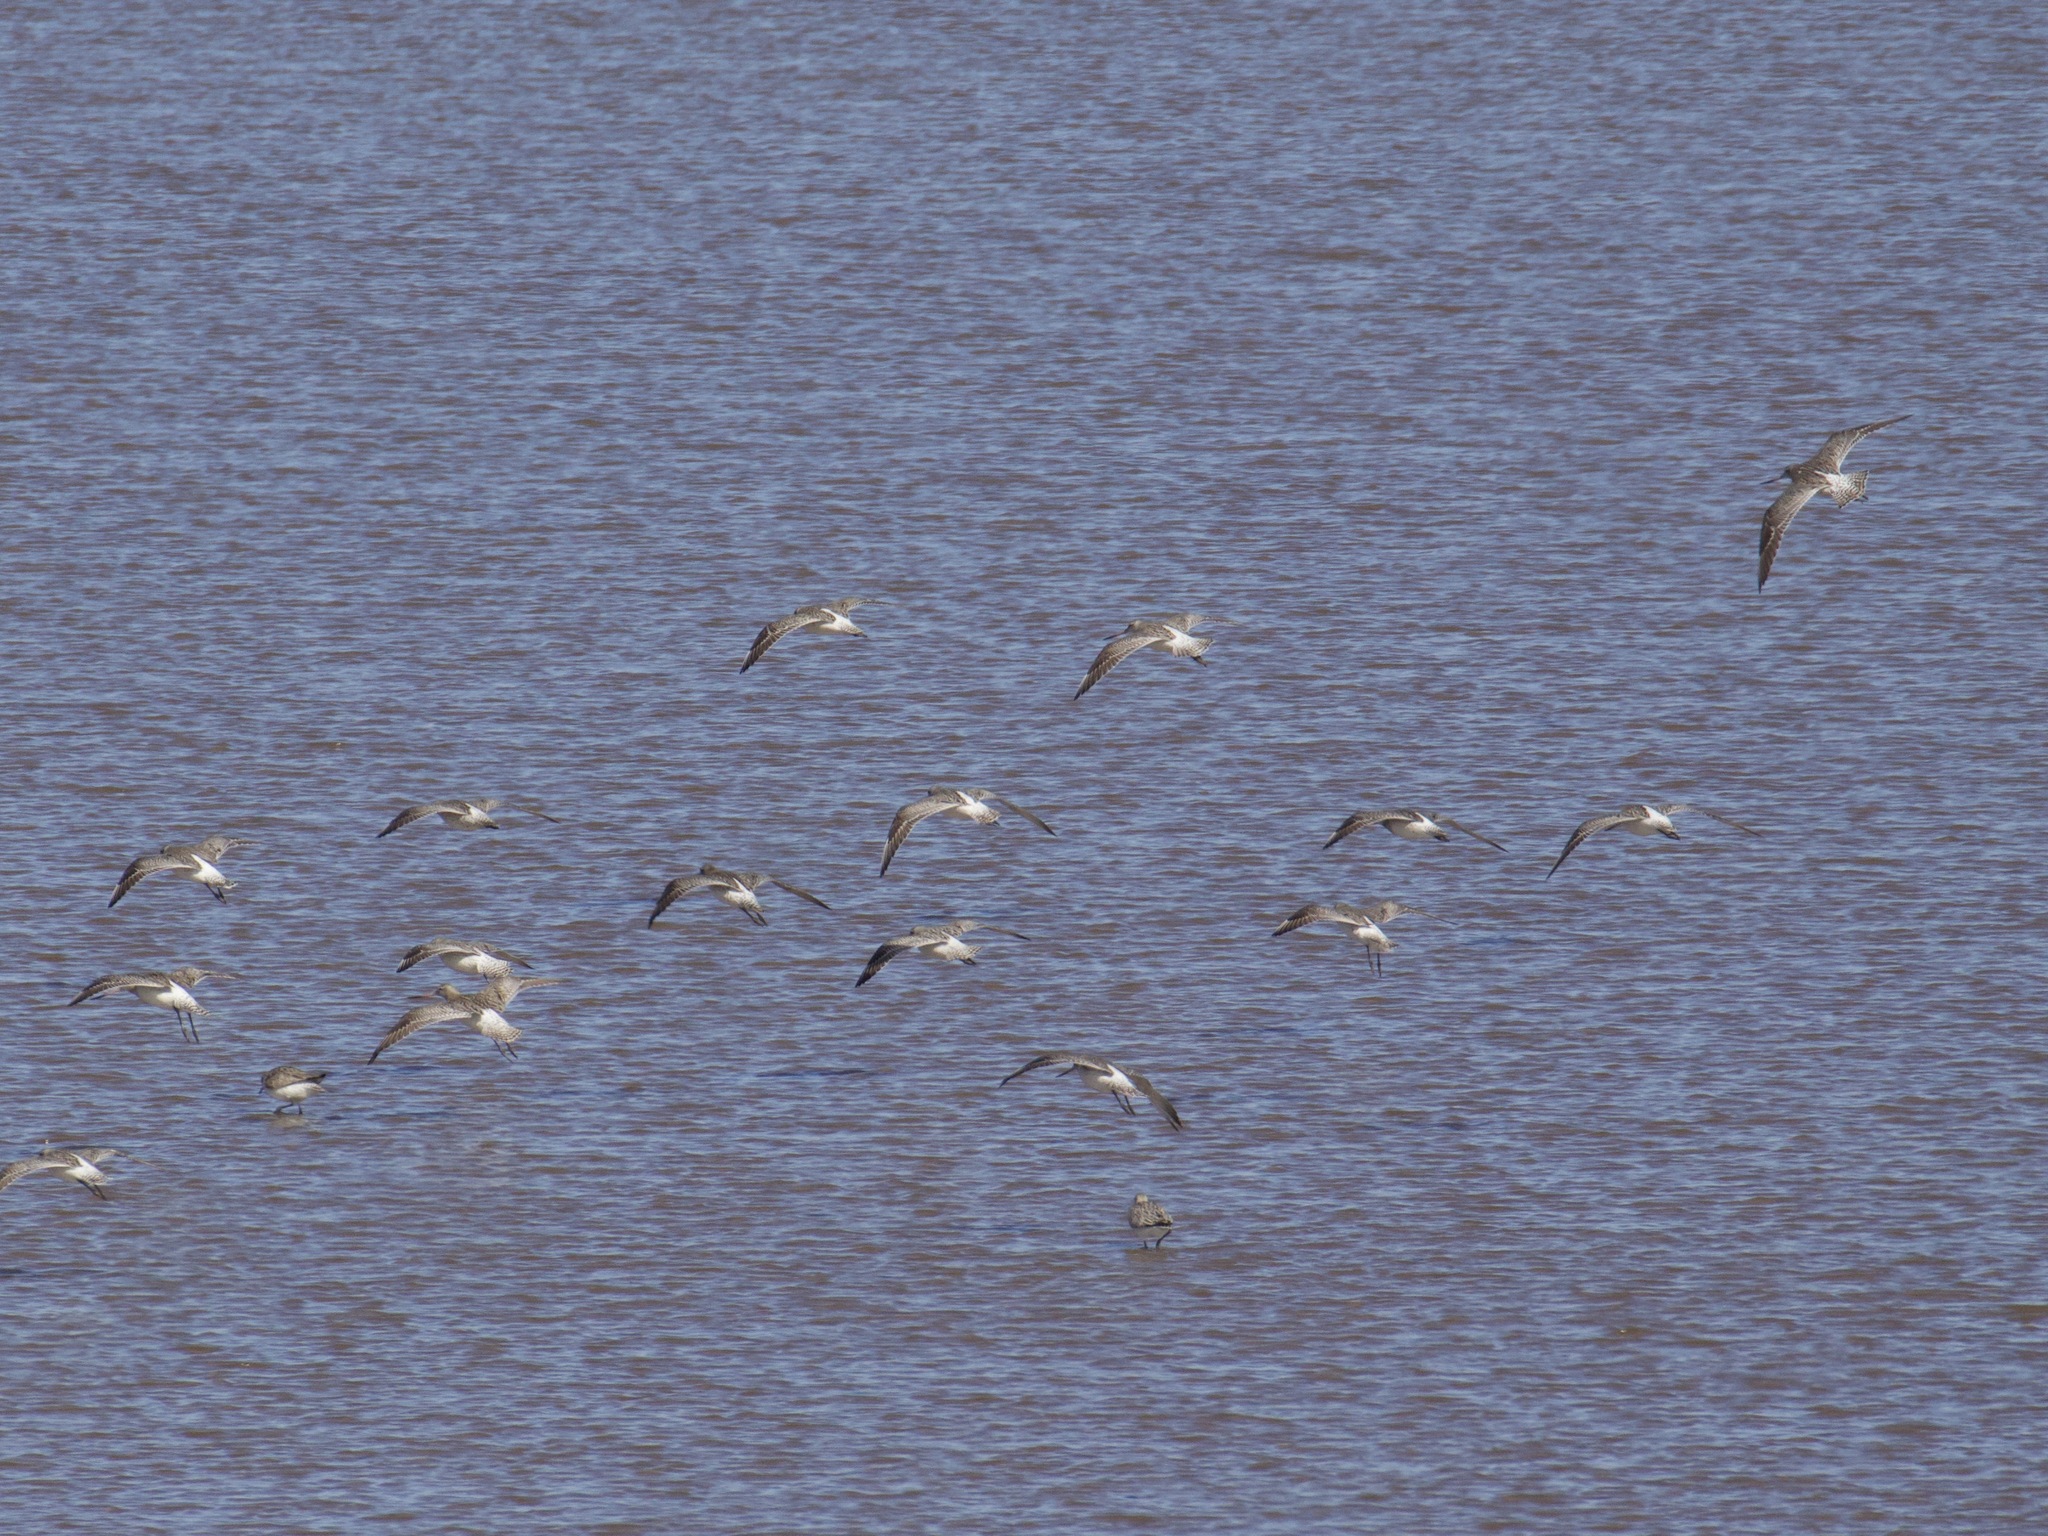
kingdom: Animalia
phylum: Chordata
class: Aves
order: Charadriiformes
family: Scolopacidae
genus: Limosa
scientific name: Limosa lapponica
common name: Bar-tailed godwit
